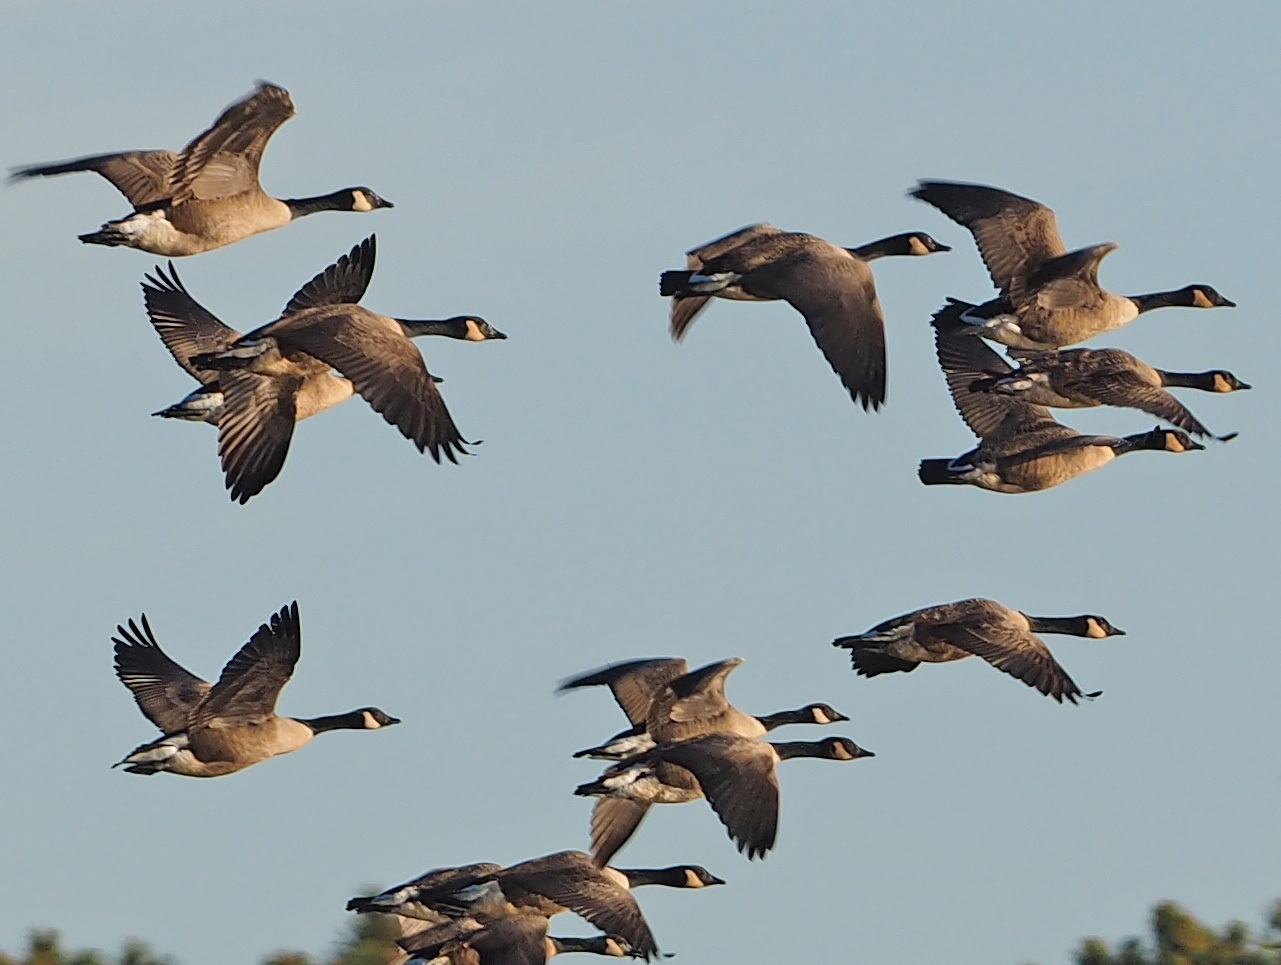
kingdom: Animalia
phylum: Chordata
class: Aves
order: Anseriformes
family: Anatidae
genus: Branta
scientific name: Branta canadensis
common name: Canada goose
